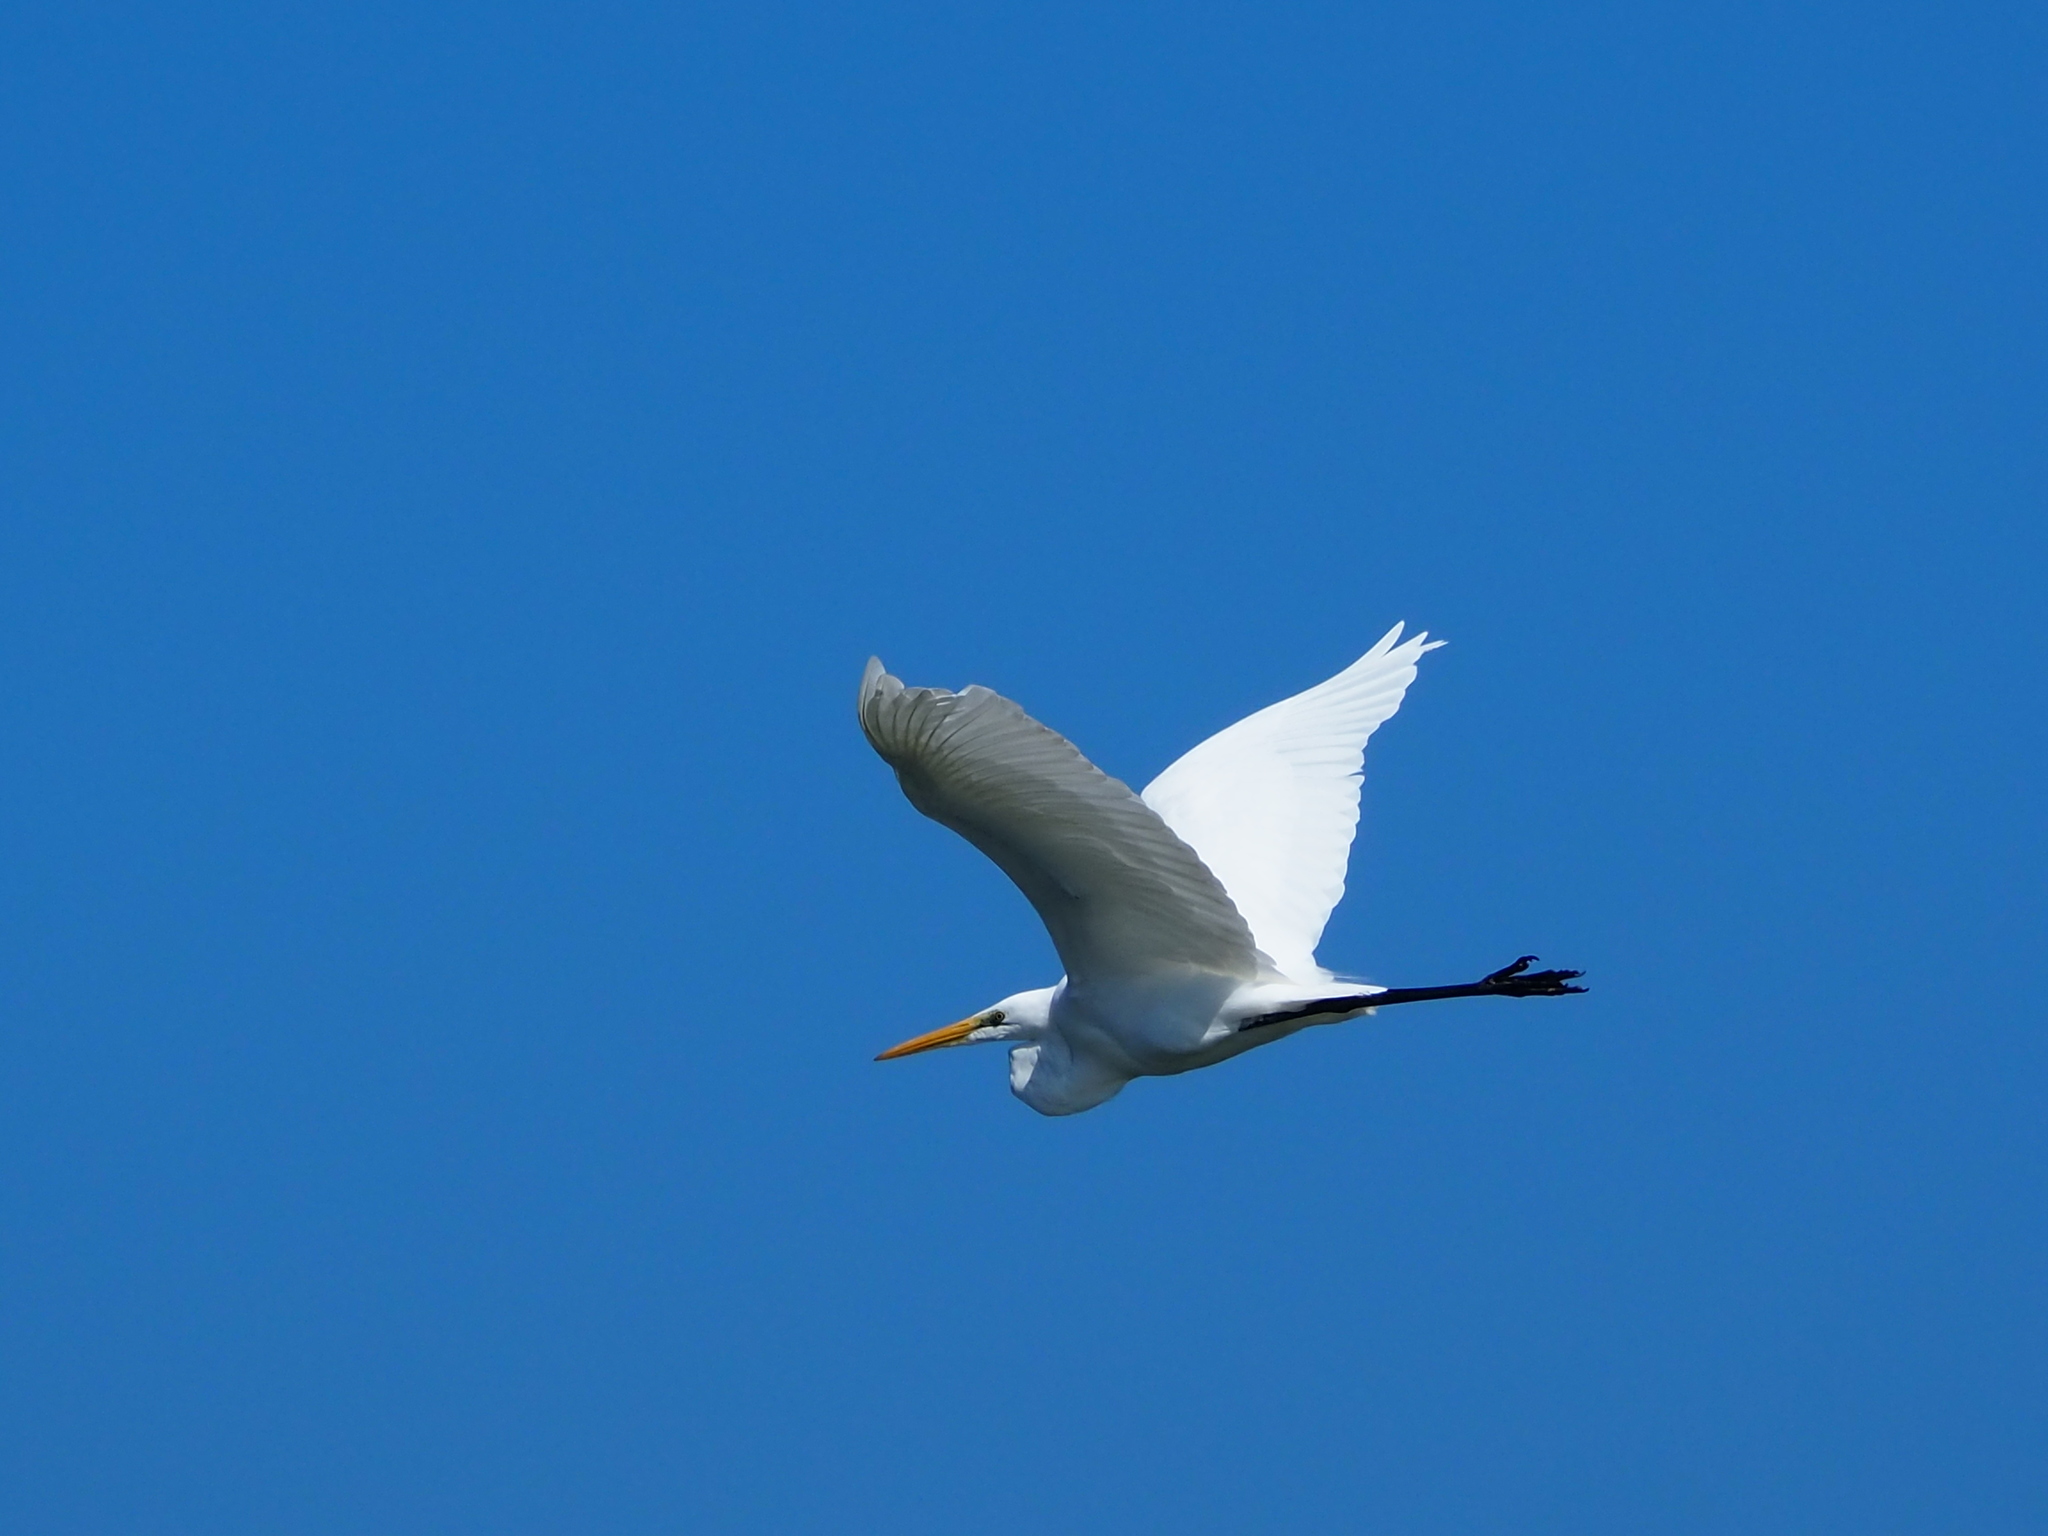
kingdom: Animalia
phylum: Chordata
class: Aves
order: Pelecaniformes
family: Ardeidae
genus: Ardea
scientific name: Ardea alba
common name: Great egret
